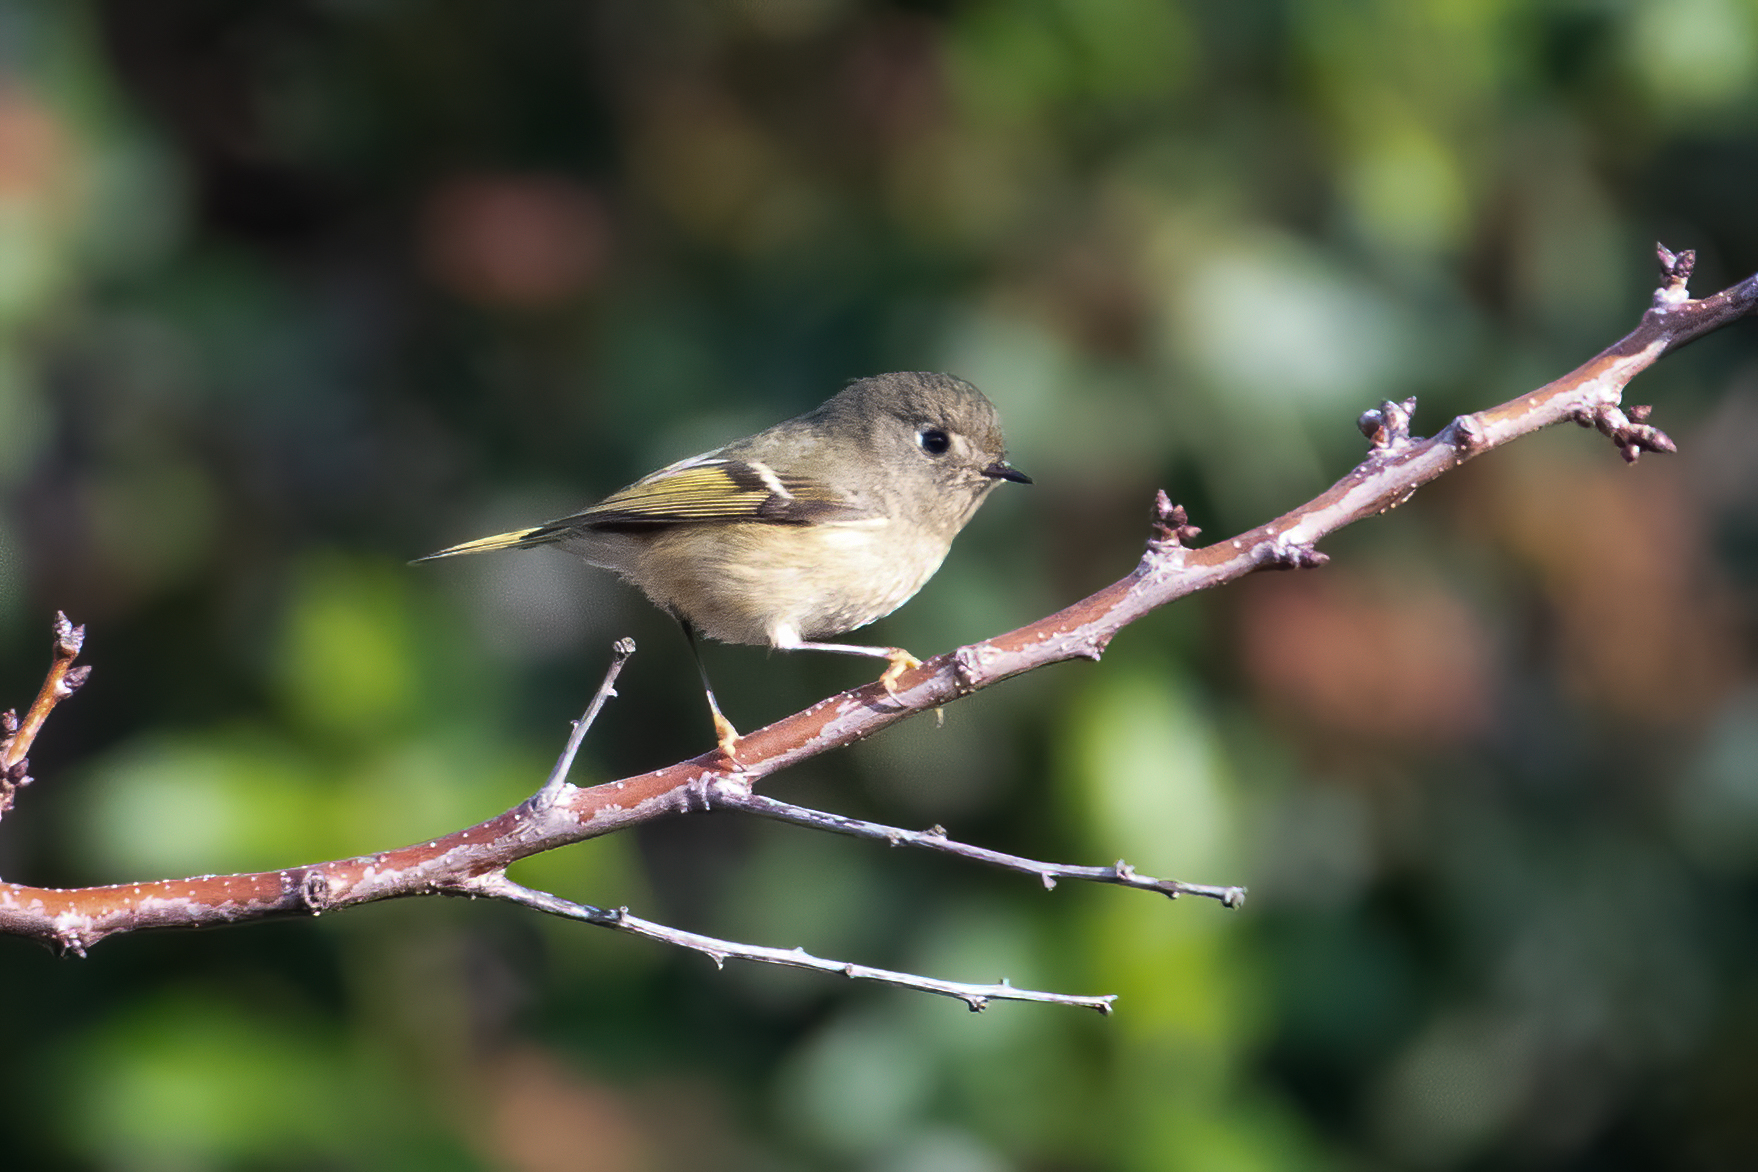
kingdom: Animalia
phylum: Chordata
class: Aves
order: Passeriformes
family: Regulidae
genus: Regulus
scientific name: Regulus calendula
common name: Ruby-crowned kinglet
